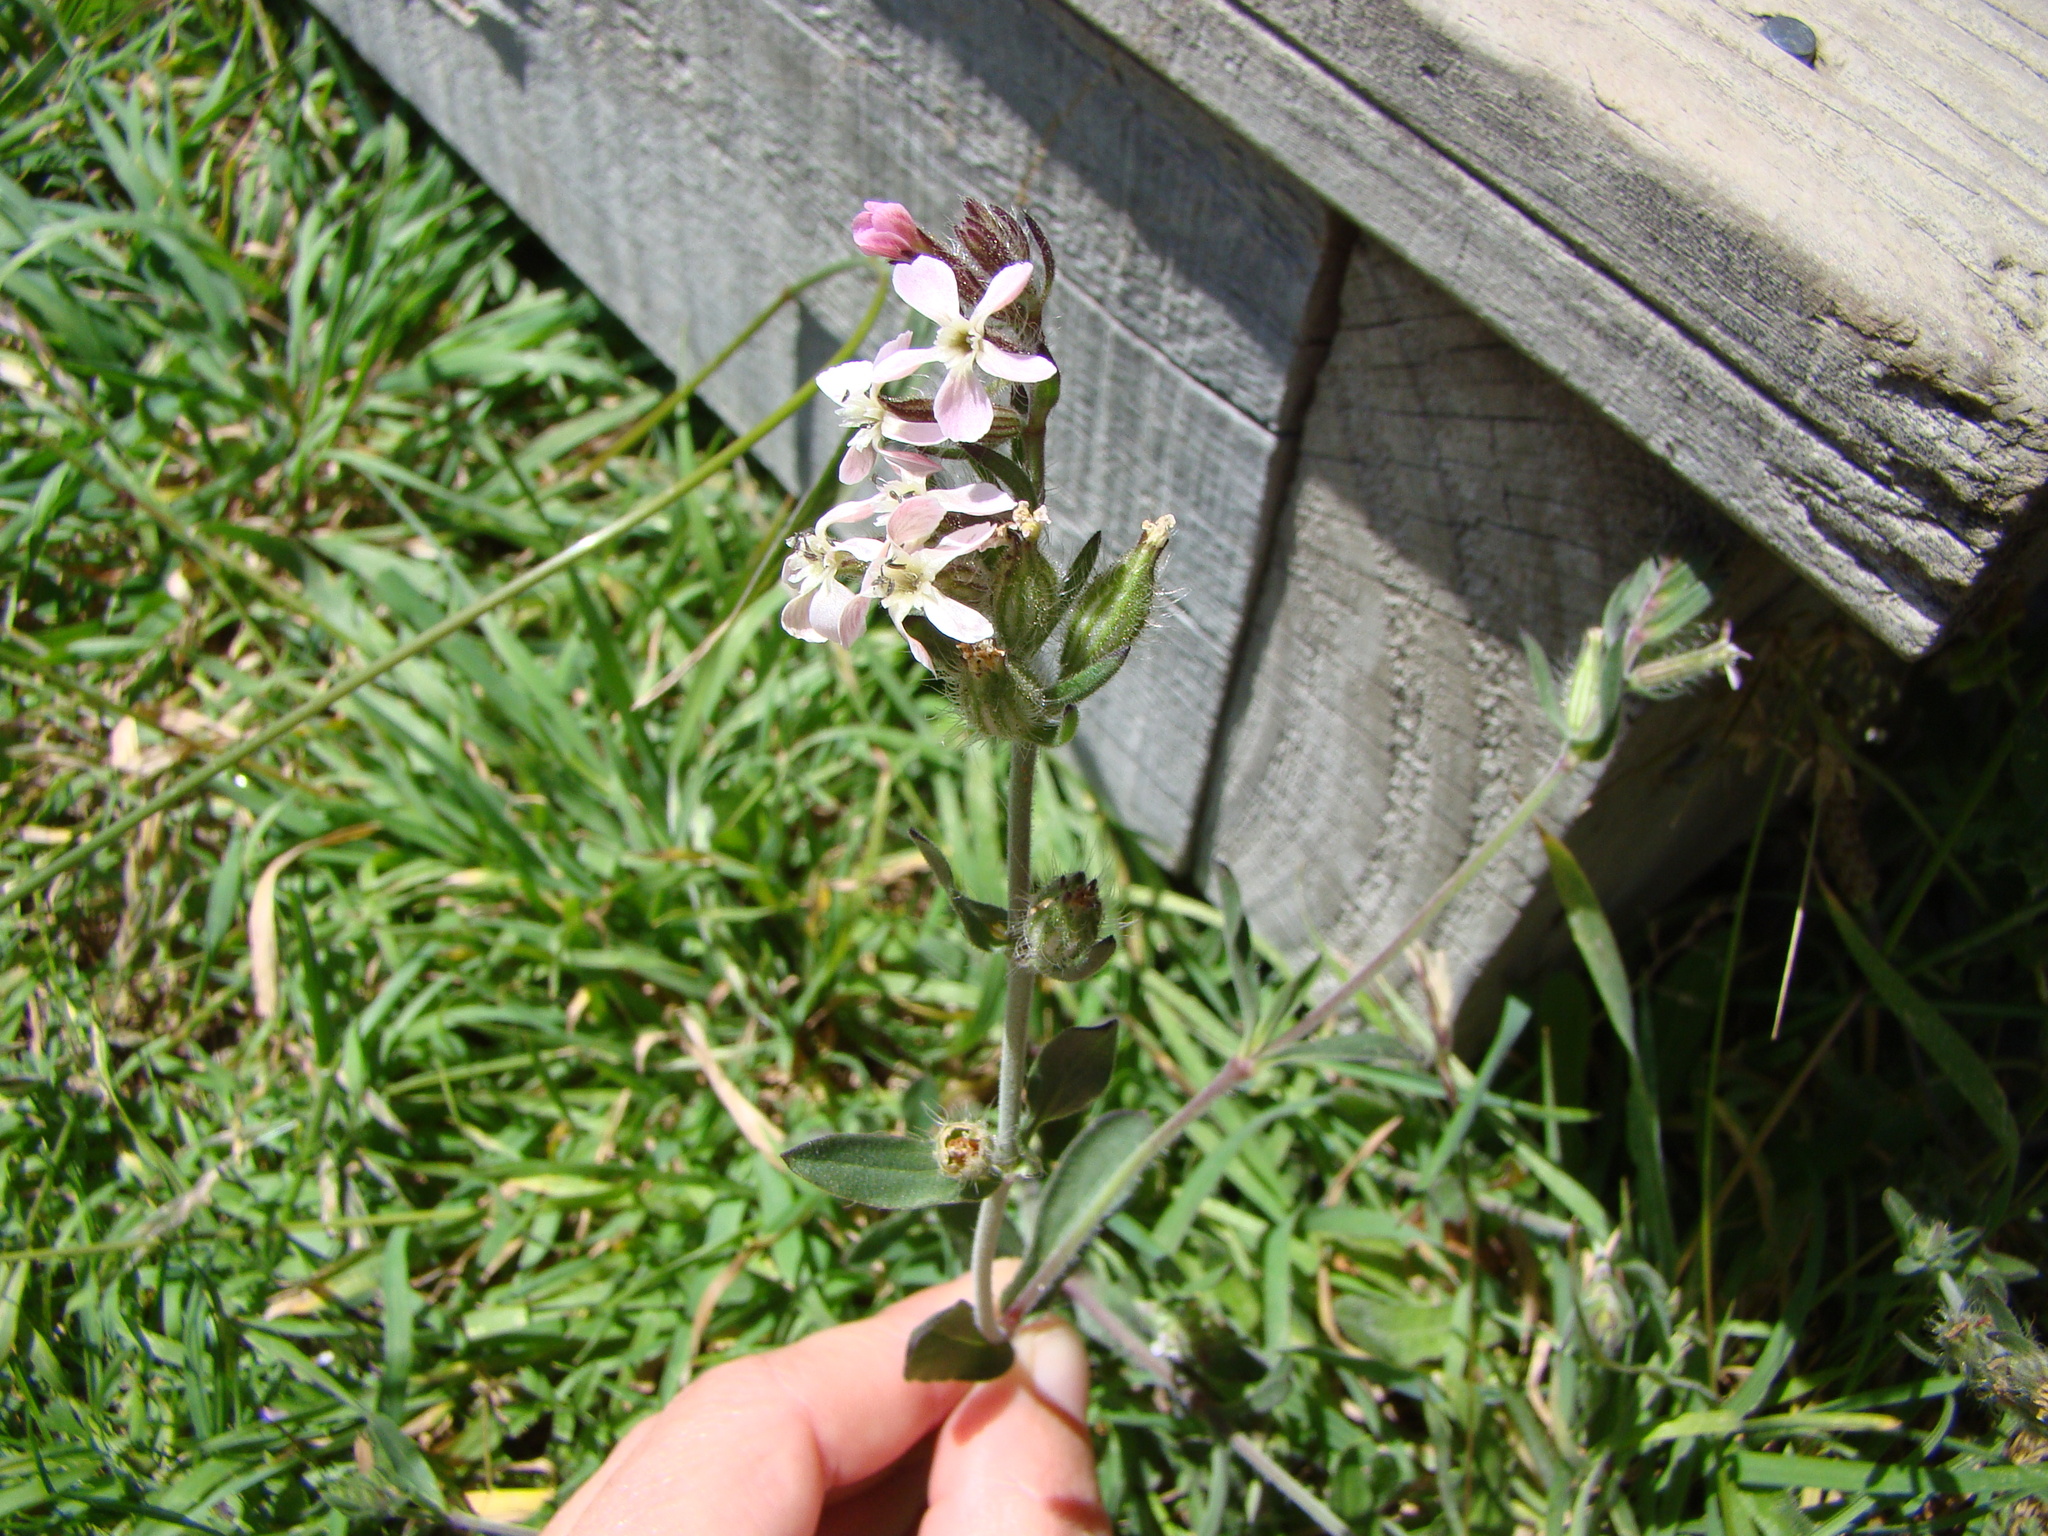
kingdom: Plantae
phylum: Tracheophyta
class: Magnoliopsida
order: Caryophyllales
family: Caryophyllaceae
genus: Silene
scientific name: Silene gallica
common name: Small-flowered catchfly
